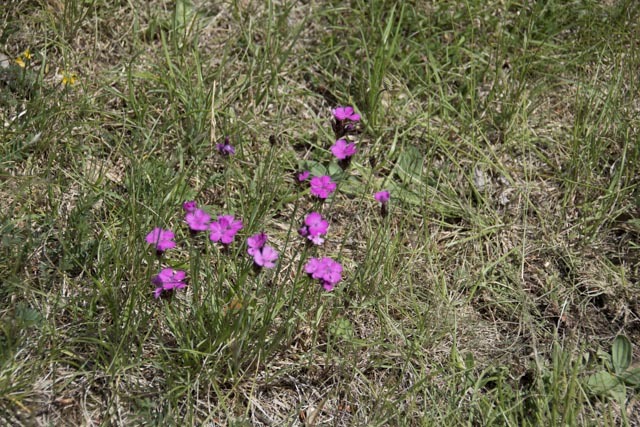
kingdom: Plantae
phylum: Tracheophyta
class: Magnoliopsida
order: Caryophyllales
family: Caryophyllaceae
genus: Dianthus
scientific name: Dianthus carthusianorum
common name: Carthusian pink
